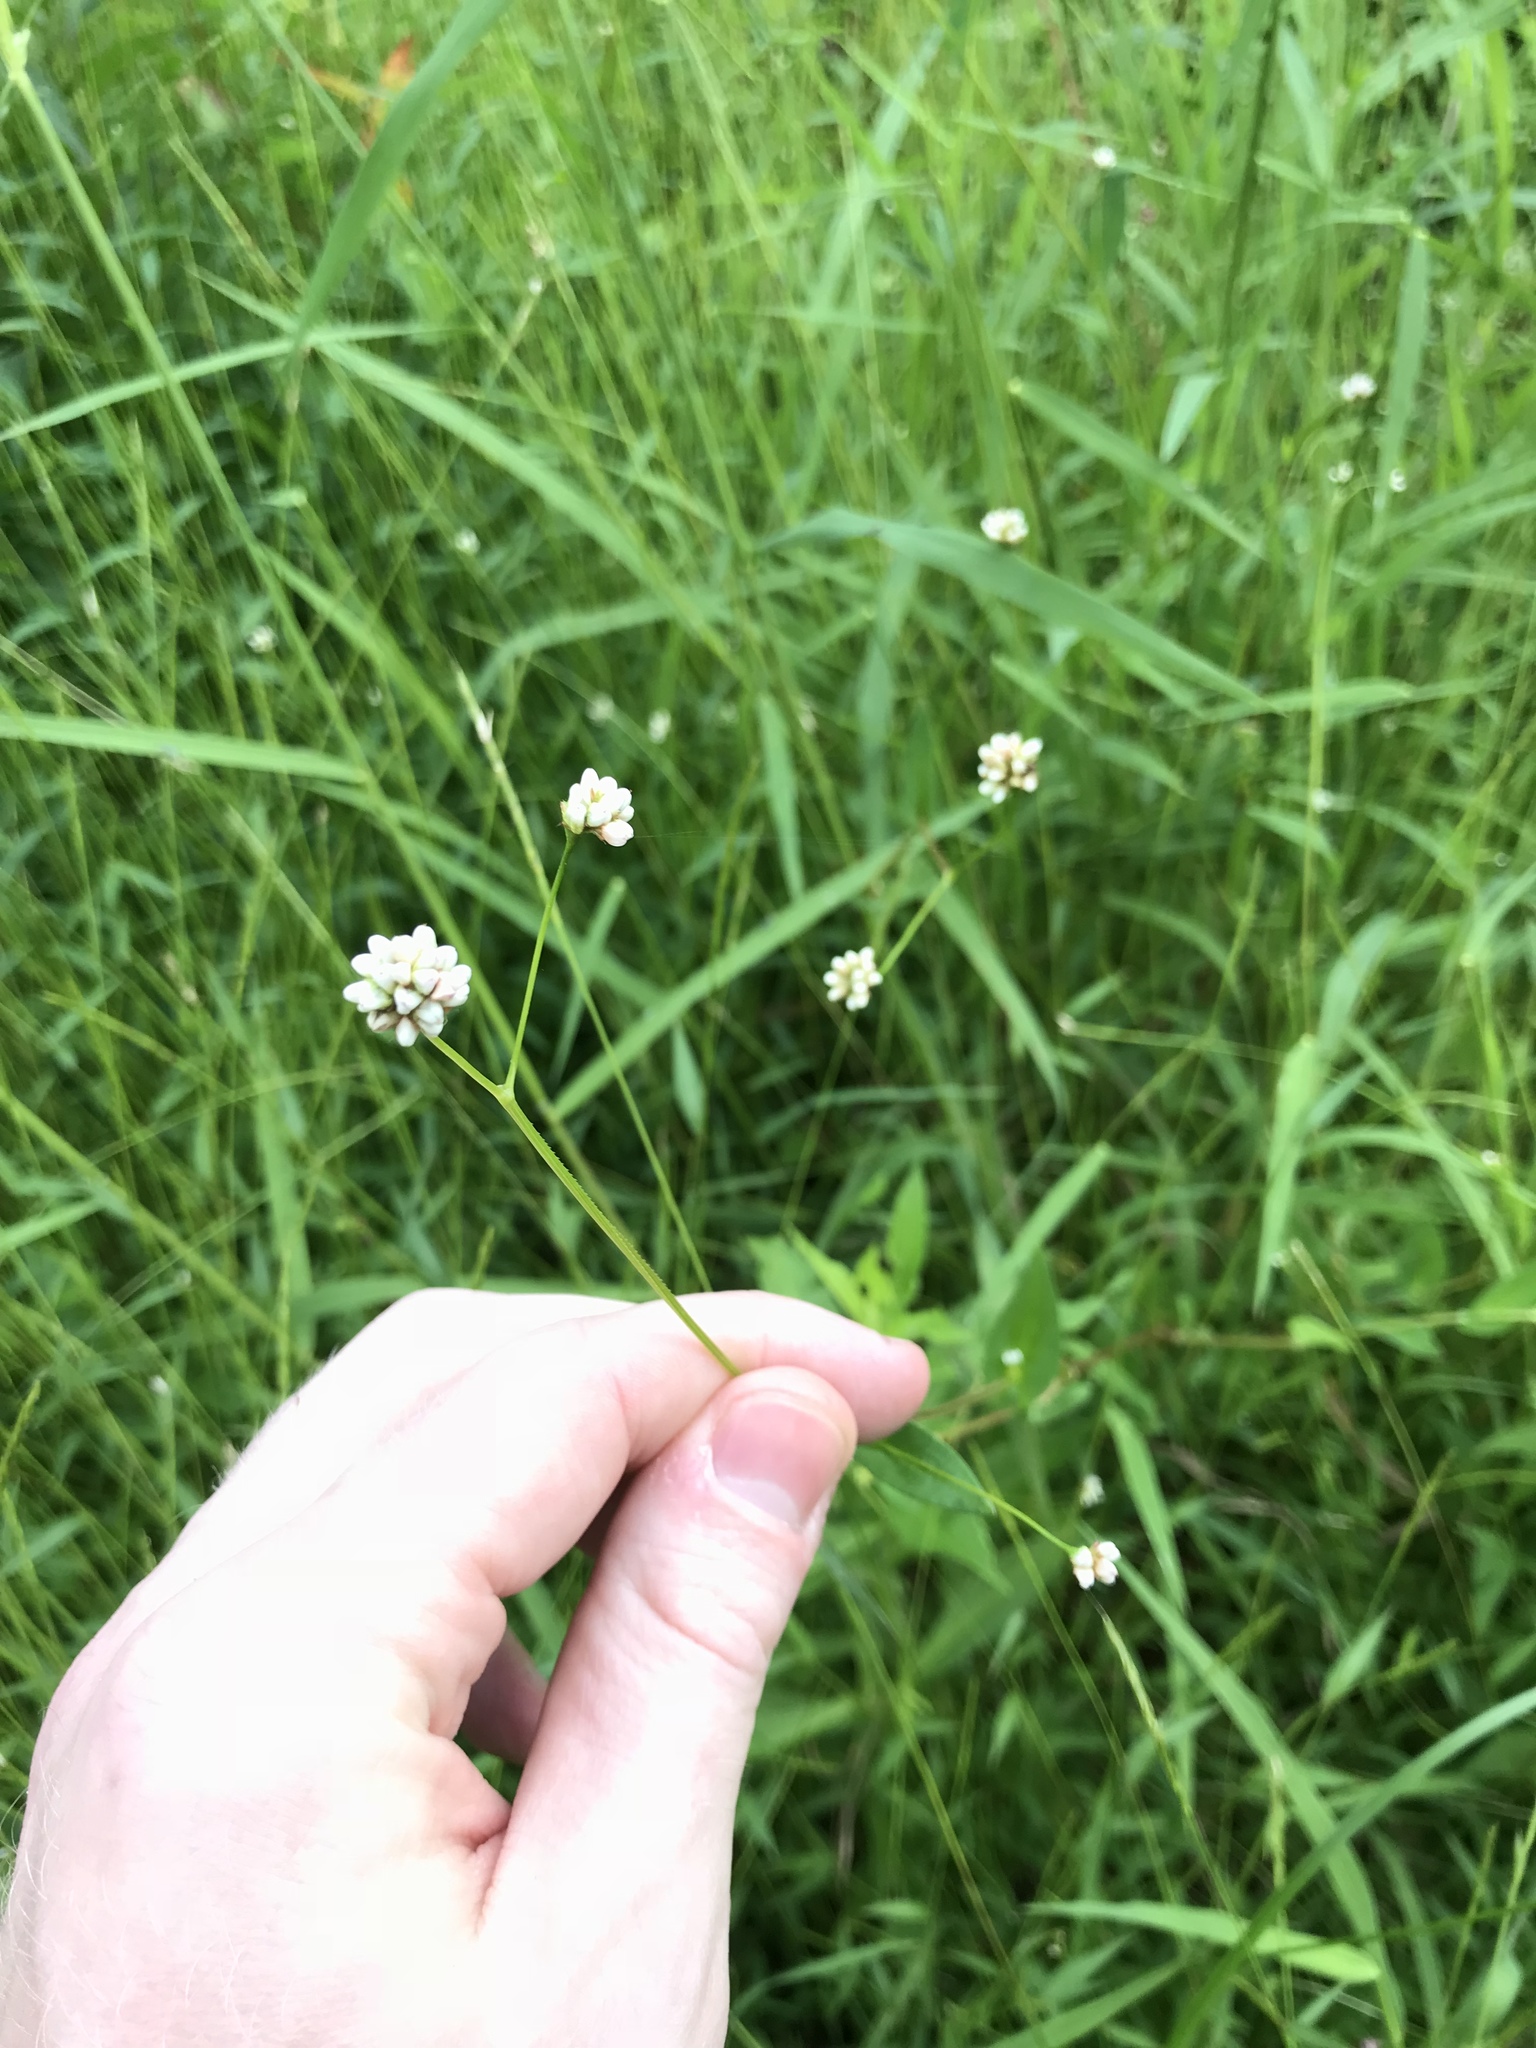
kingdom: Plantae
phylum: Tracheophyta
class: Magnoliopsida
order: Caryophyllales
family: Polygonaceae
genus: Persicaria
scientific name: Persicaria sagittata
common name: American tearthumb
